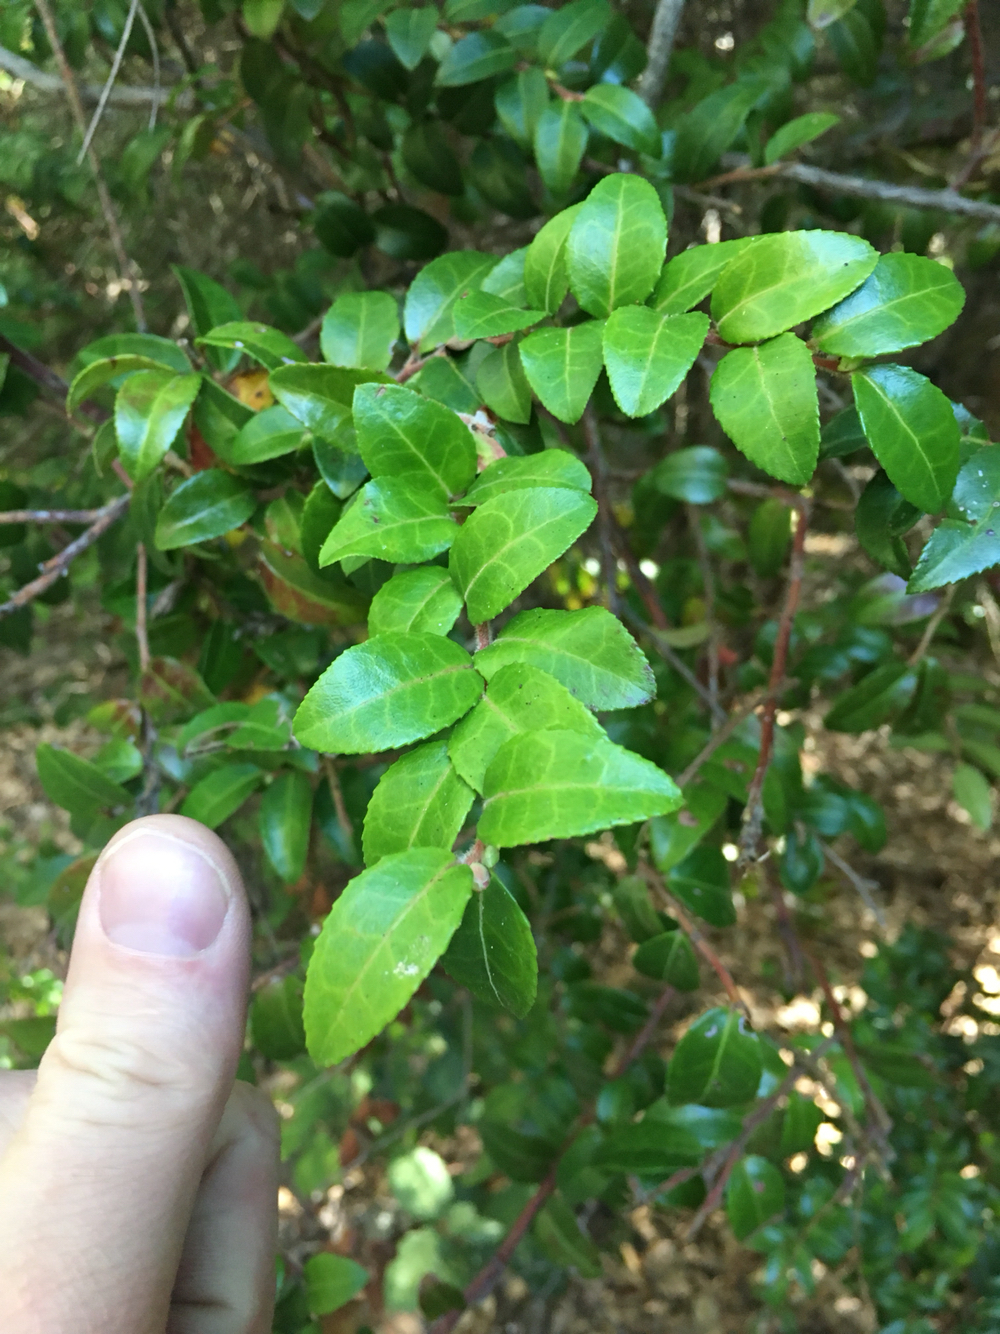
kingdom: Plantae
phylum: Tracheophyta
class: Magnoliopsida
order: Ericales
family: Ericaceae
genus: Vaccinium
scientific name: Vaccinium ovatum
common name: California-huckleberry
